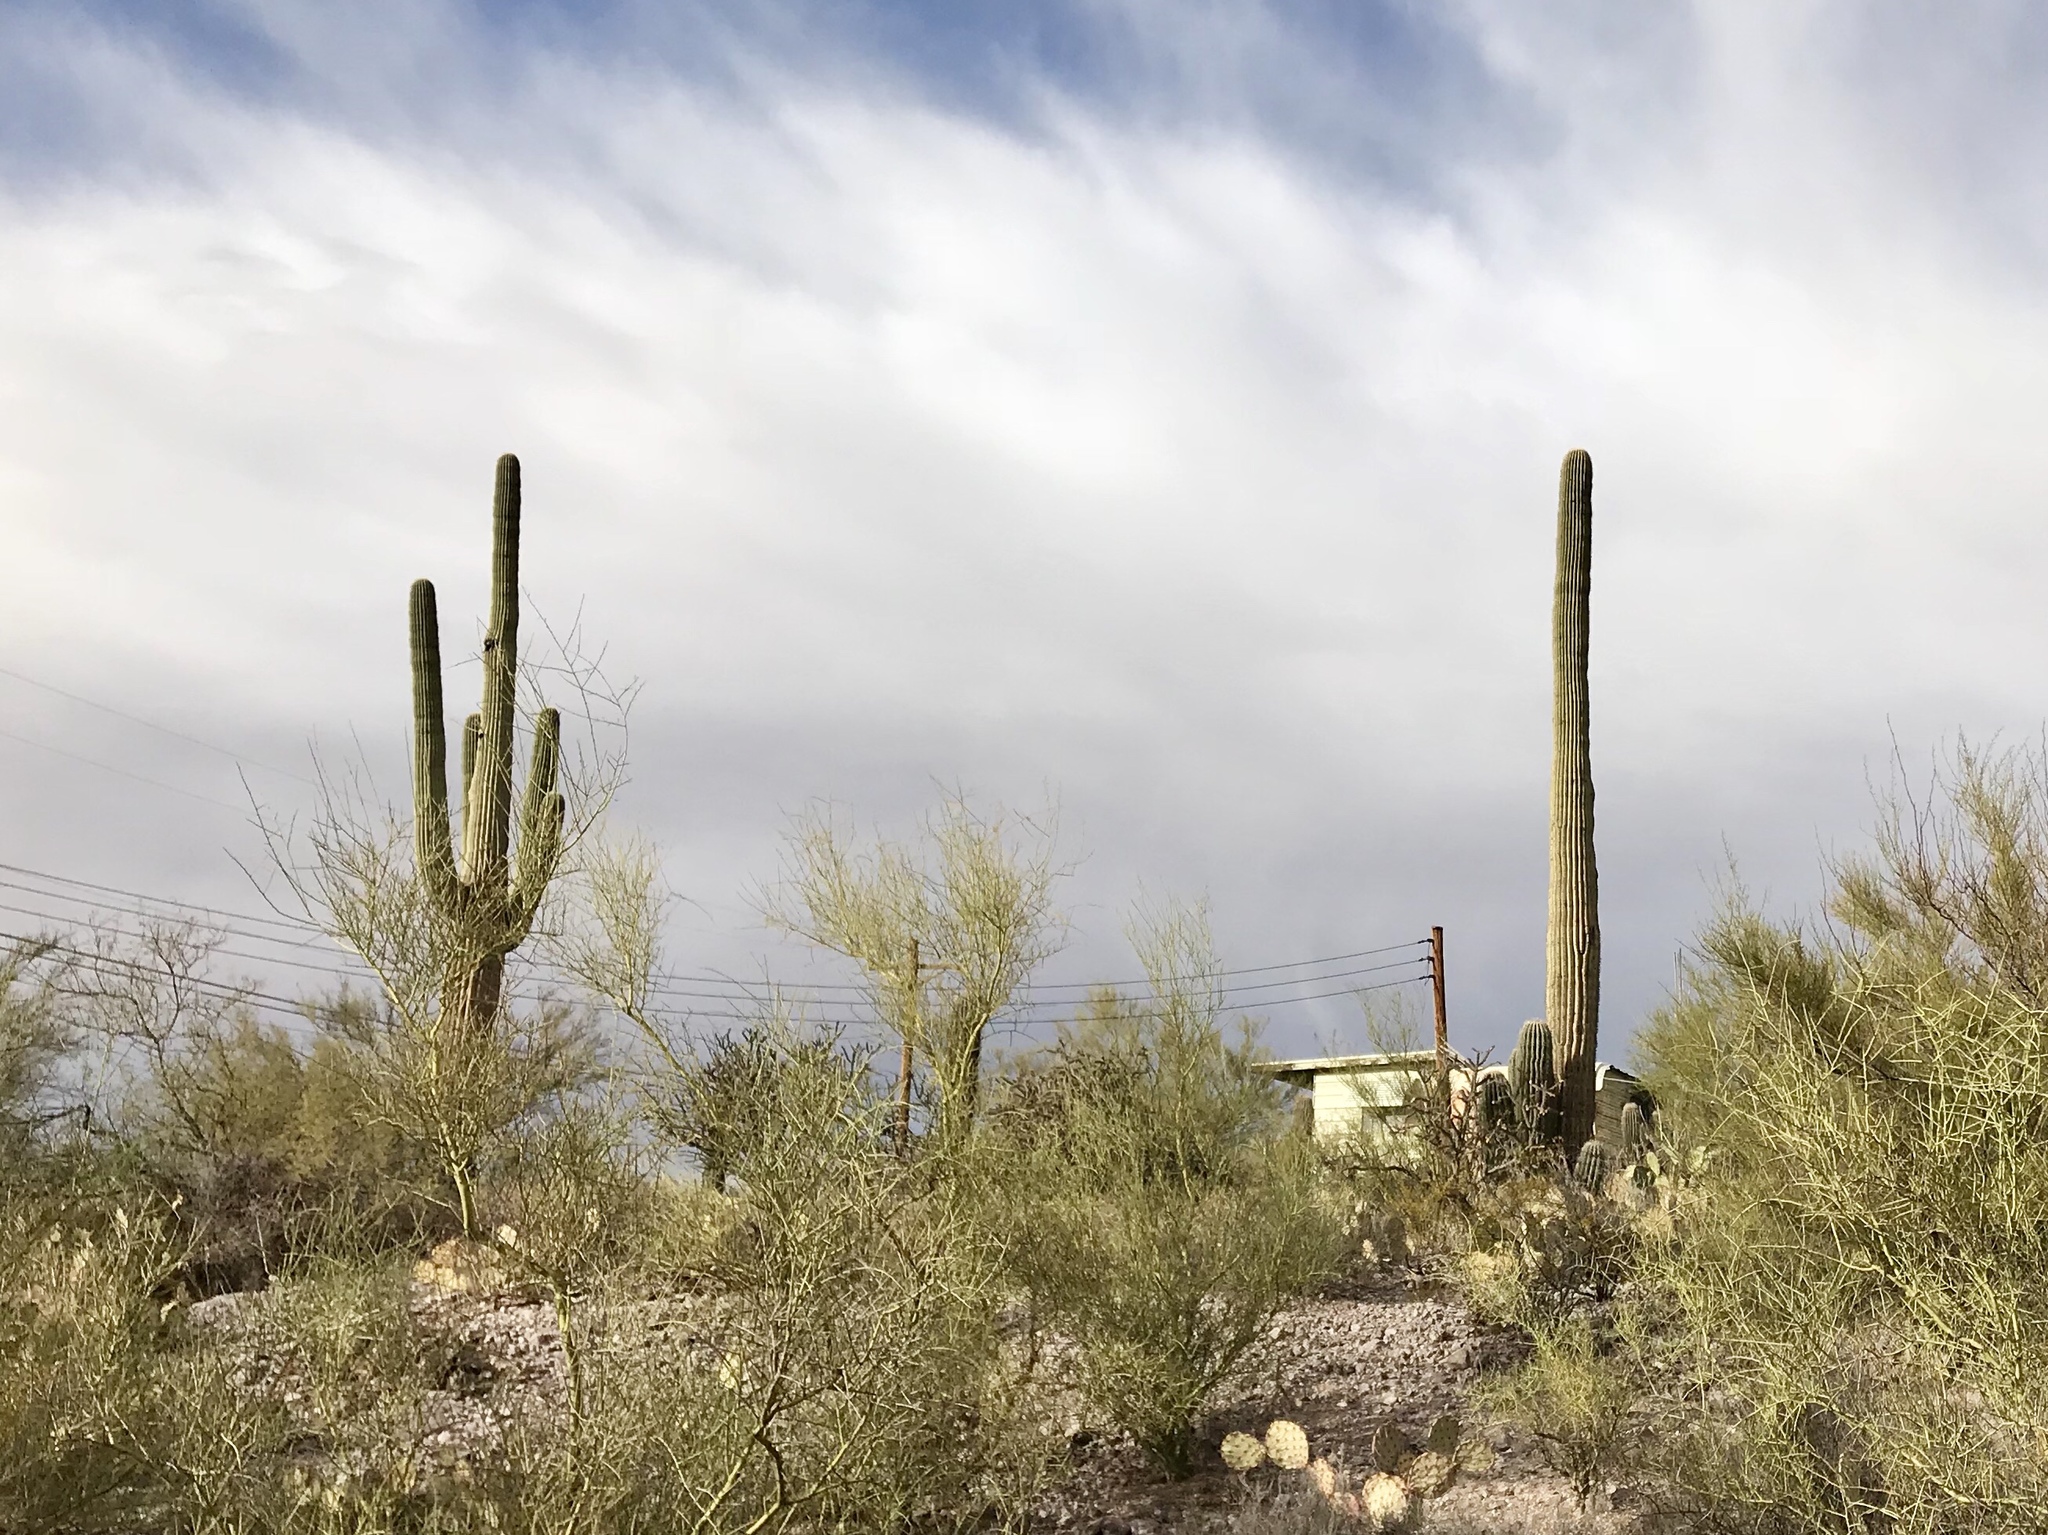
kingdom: Plantae
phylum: Tracheophyta
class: Magnoliopsida
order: Caryophyllales
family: Cactaceae
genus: Carnegiea
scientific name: Carnegiea gigantea
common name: Saguaro
